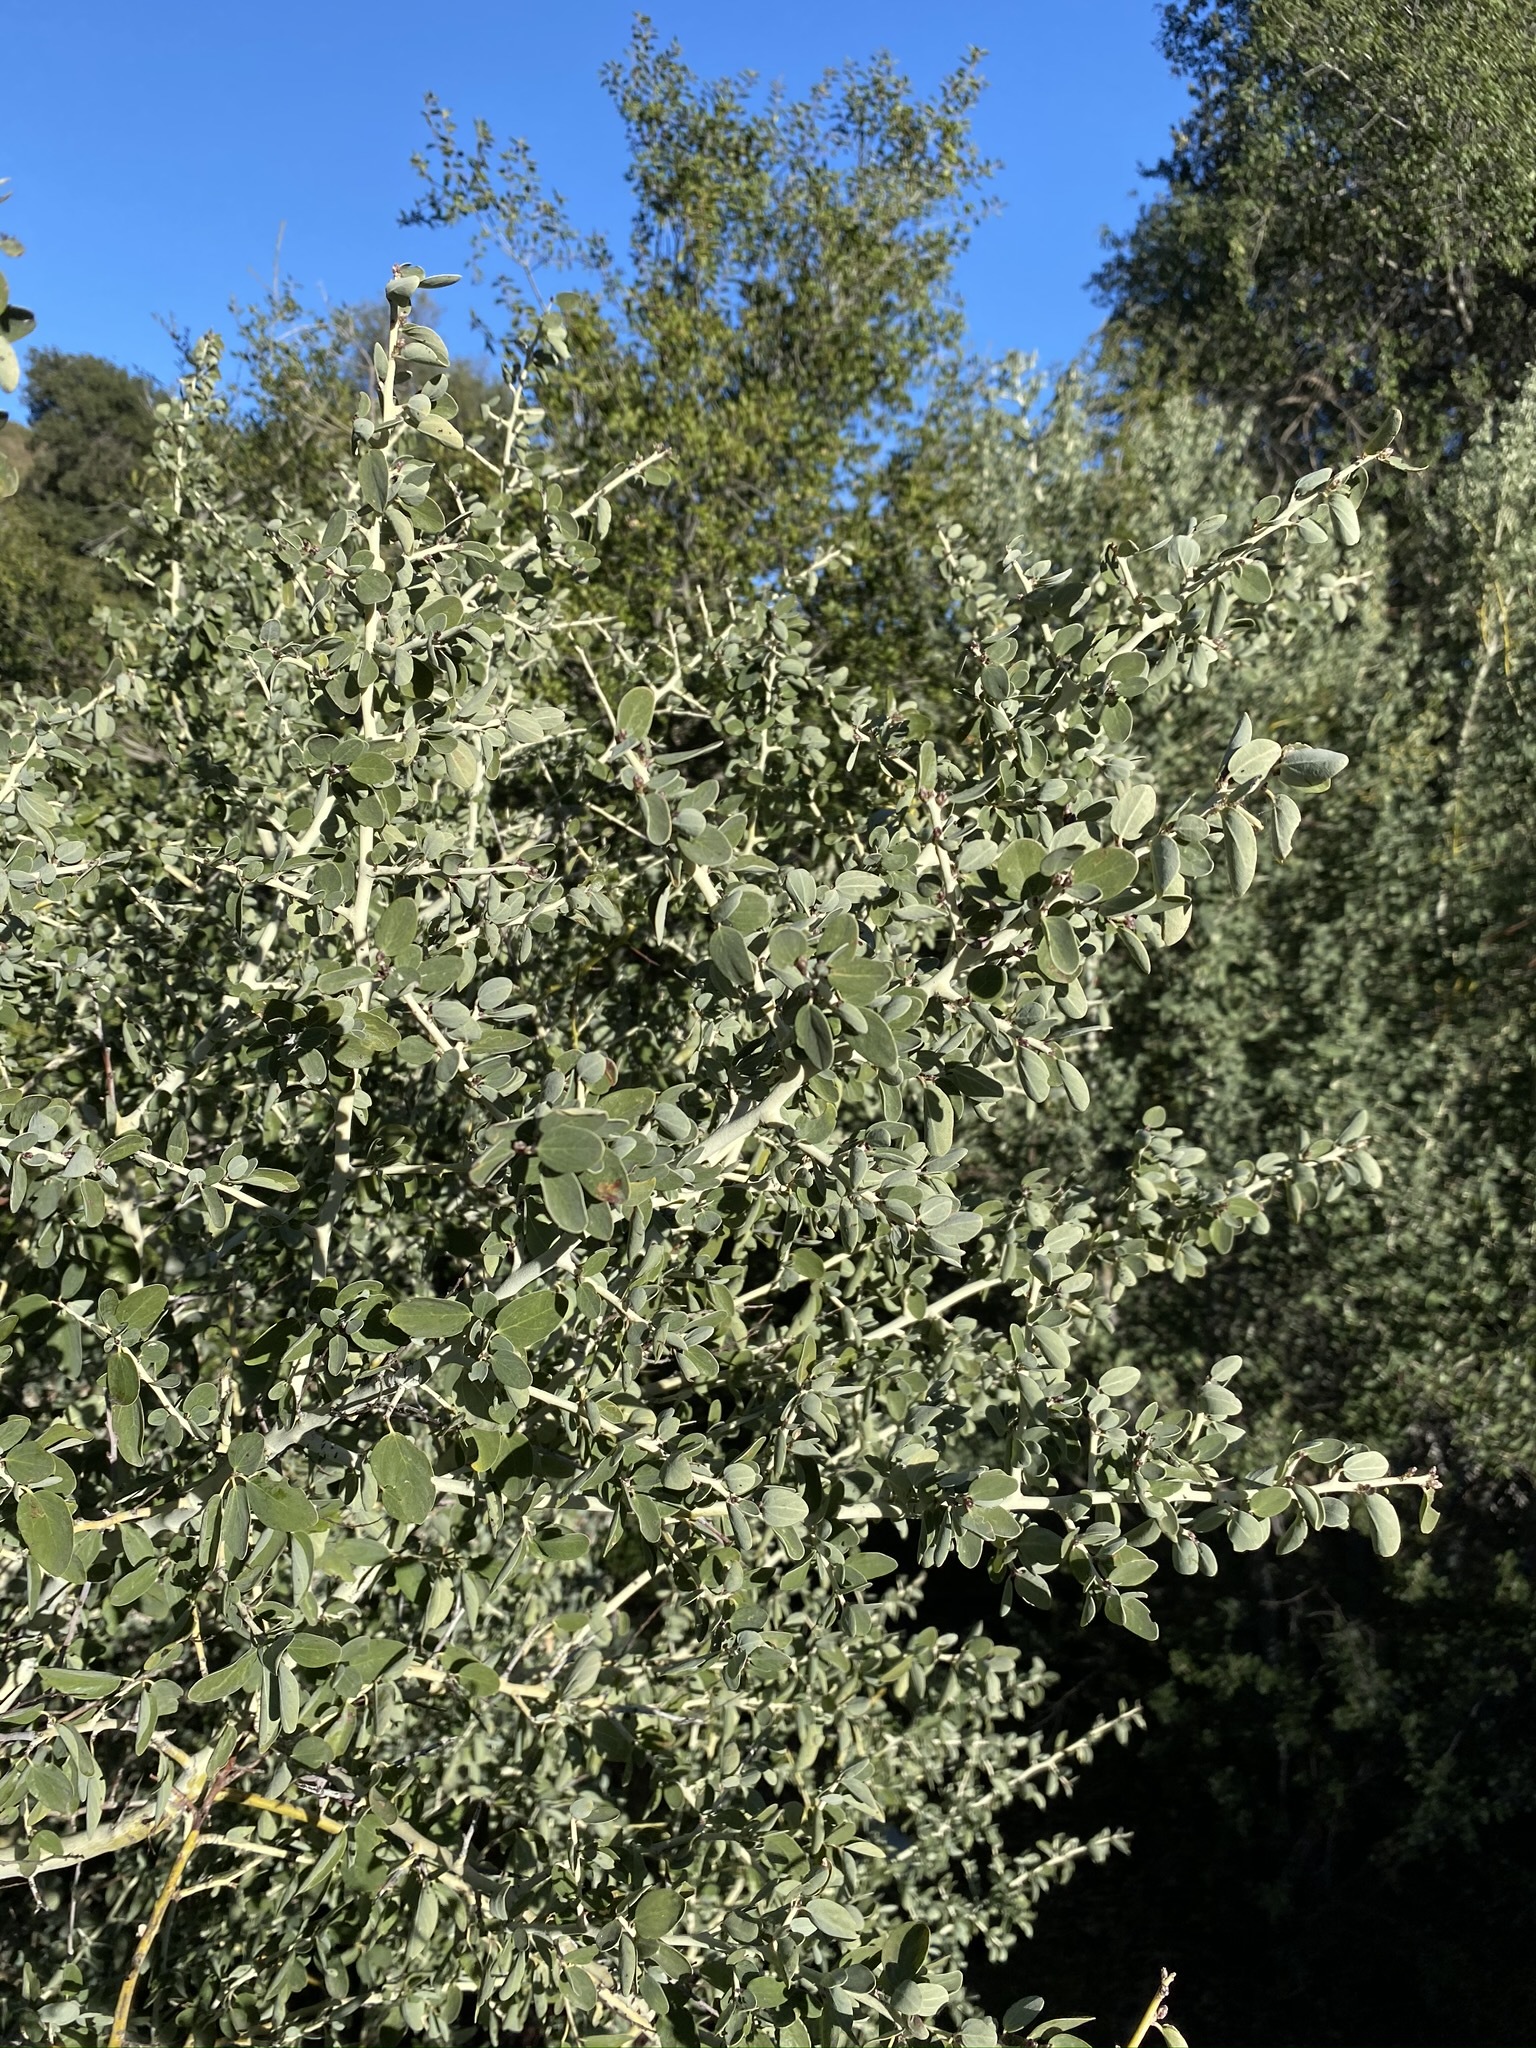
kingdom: Plantae
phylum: Tracheophyta
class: Magnoliopsida
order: Rosales
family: Rhamnaceae
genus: Ceanothus
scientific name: Ceanothus leucodermis
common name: Chaparral whitethorn
